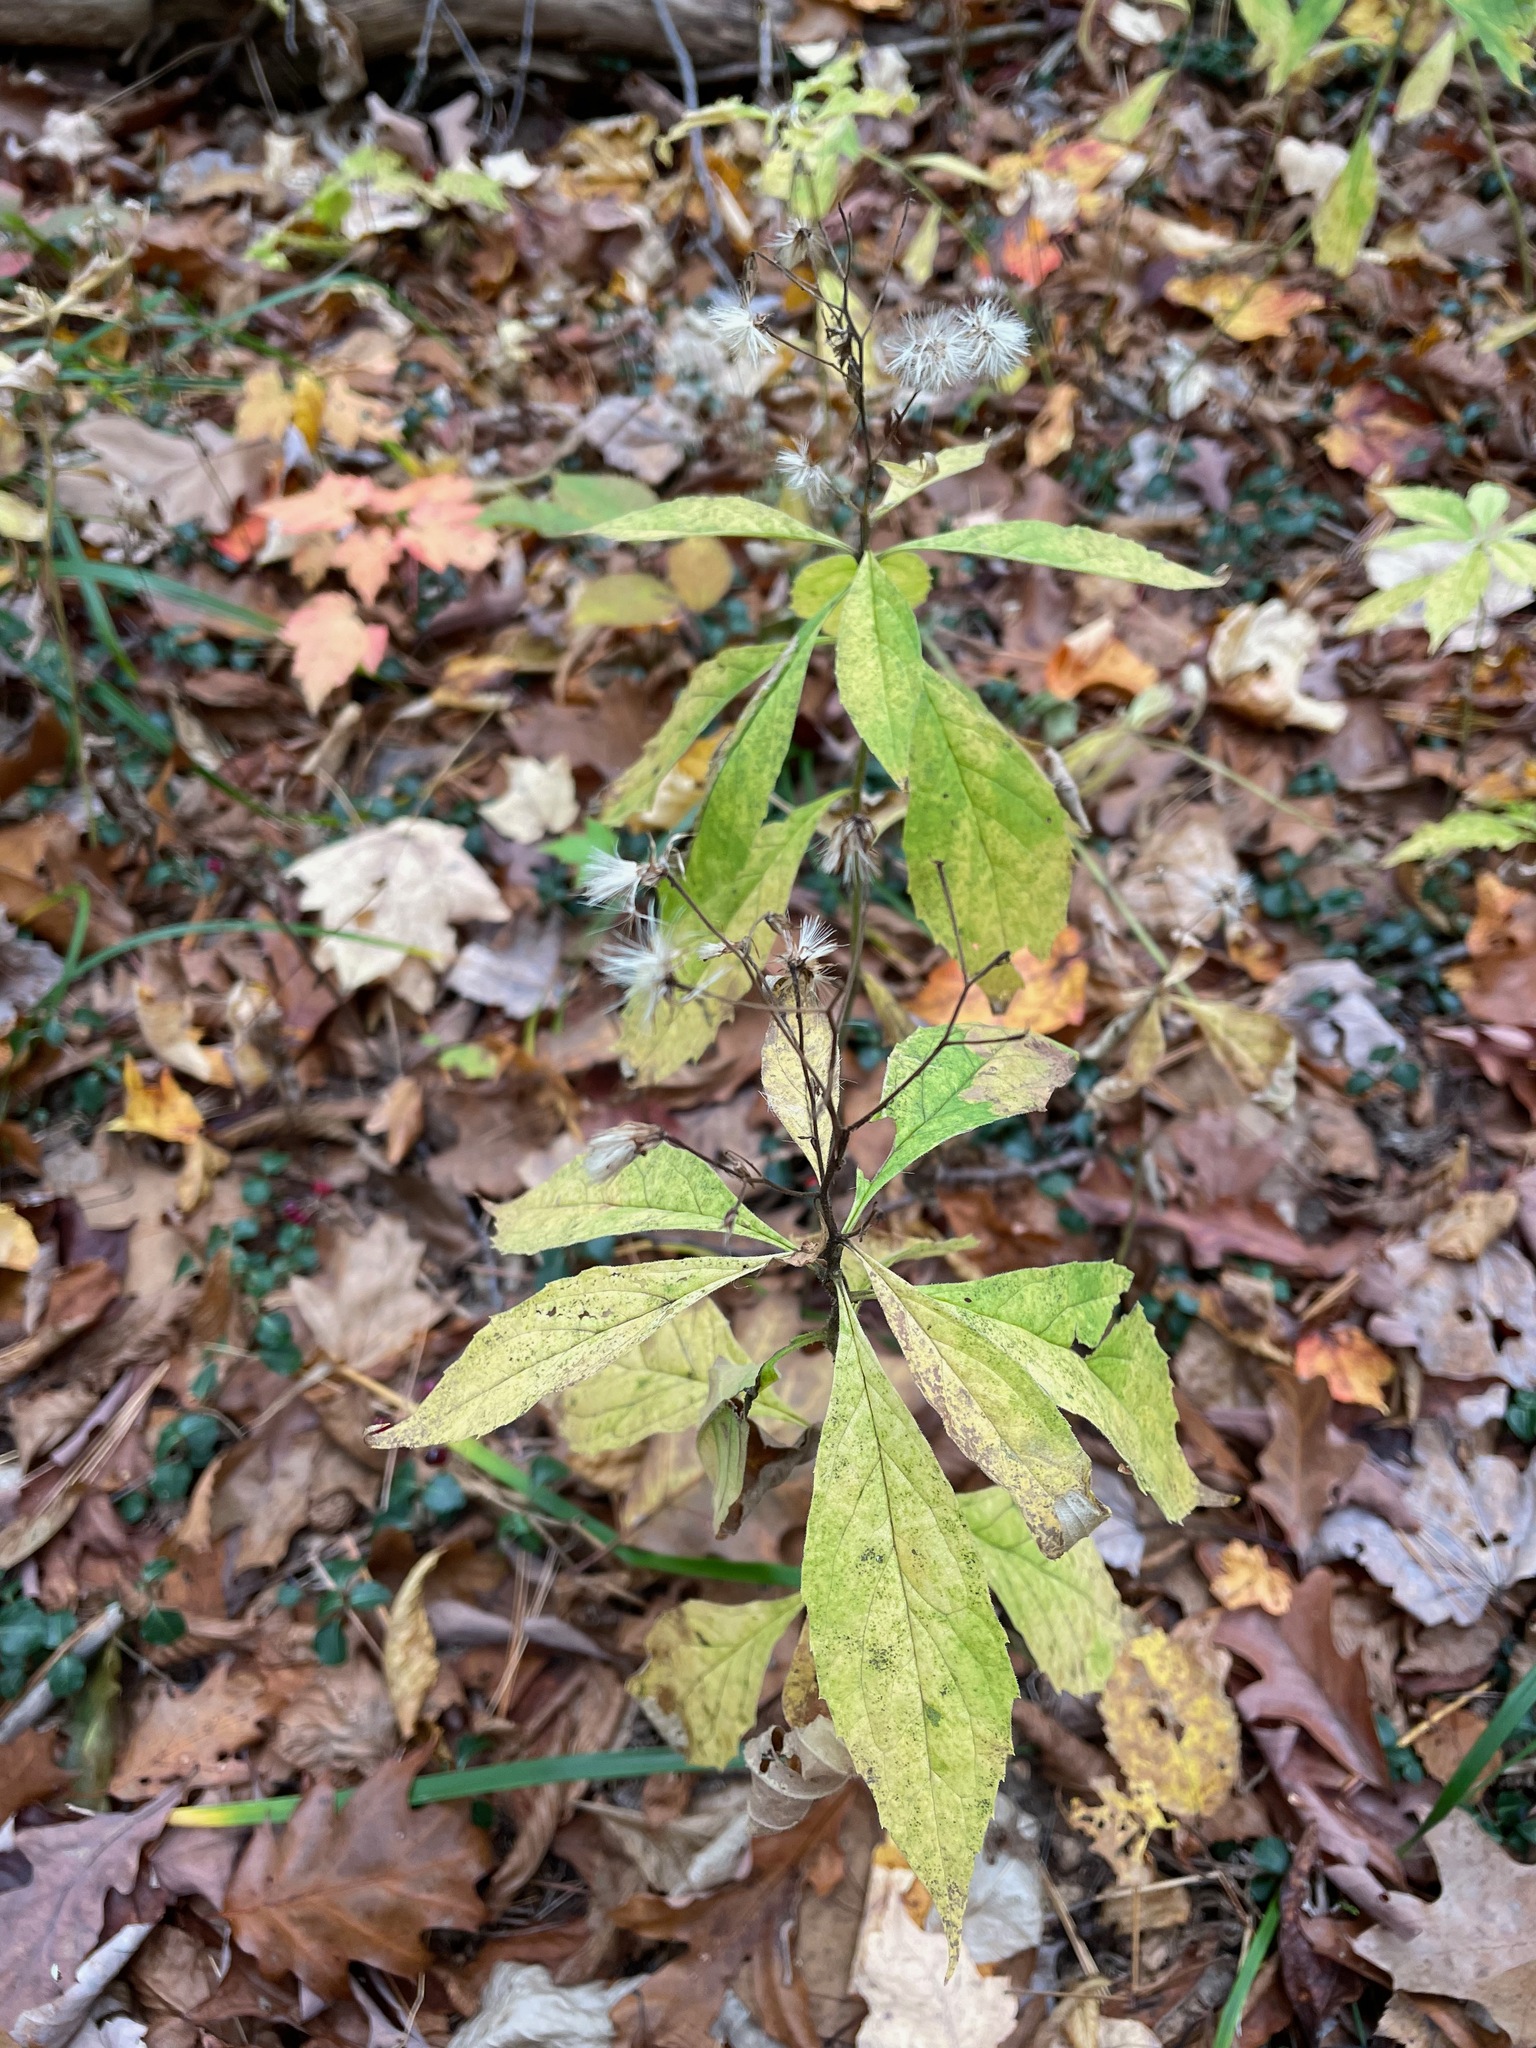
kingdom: Plantae
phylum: Tracheophyta
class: Magnoliopsida
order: Asterales
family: Asteraceae
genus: Oclemena
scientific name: Oclemena acuminata
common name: Mountain aster
